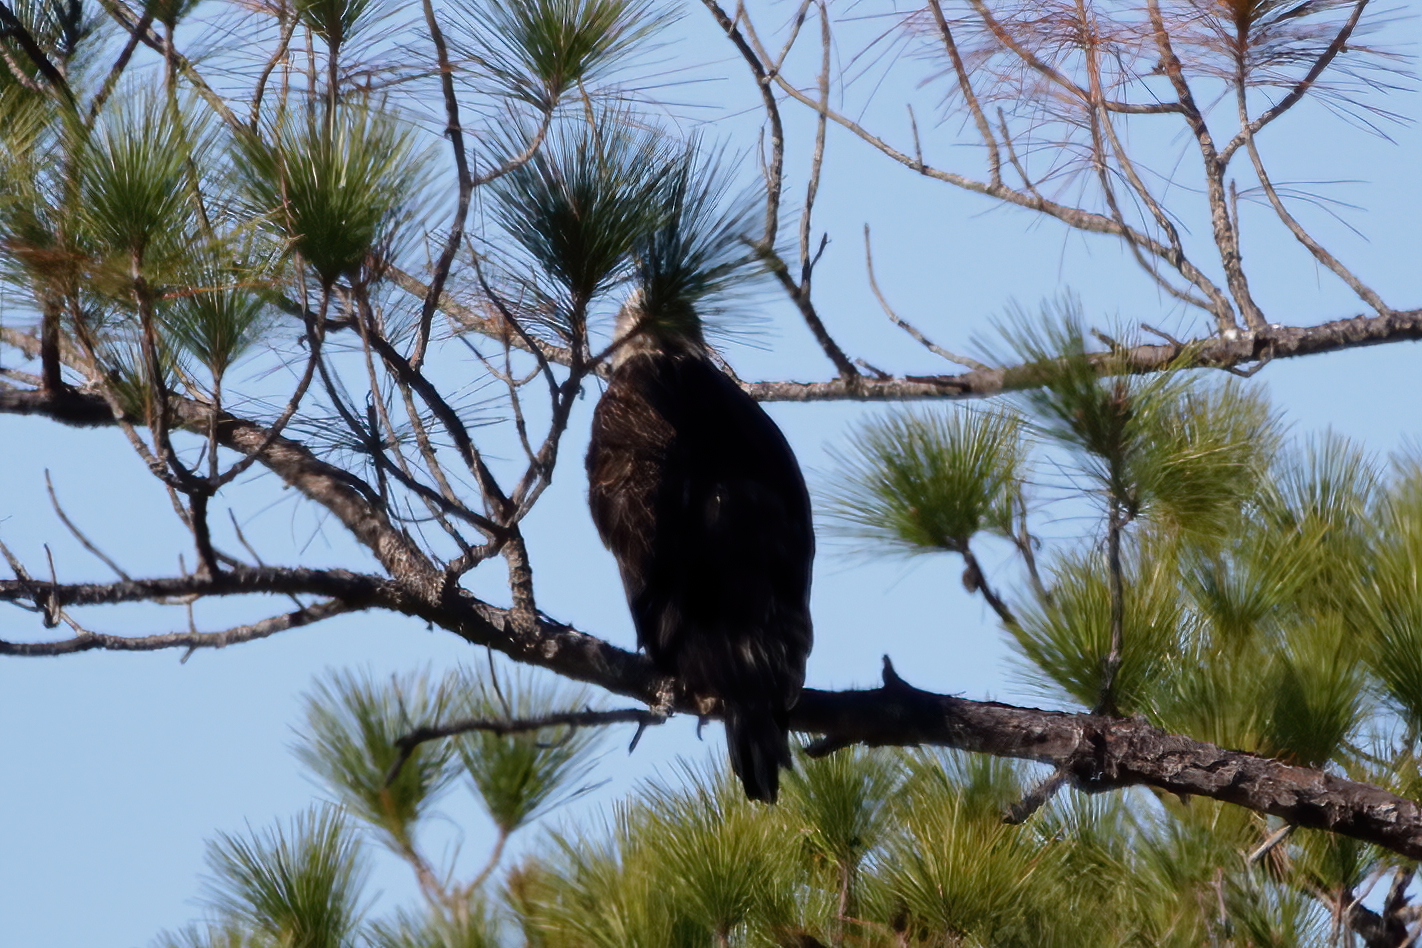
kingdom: Animalia
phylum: Chordata
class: Aves
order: Accipitriformes
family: Accipitridae
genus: Haliaeetus
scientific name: Haliaeetus leucocephalus
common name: Bald eagle
